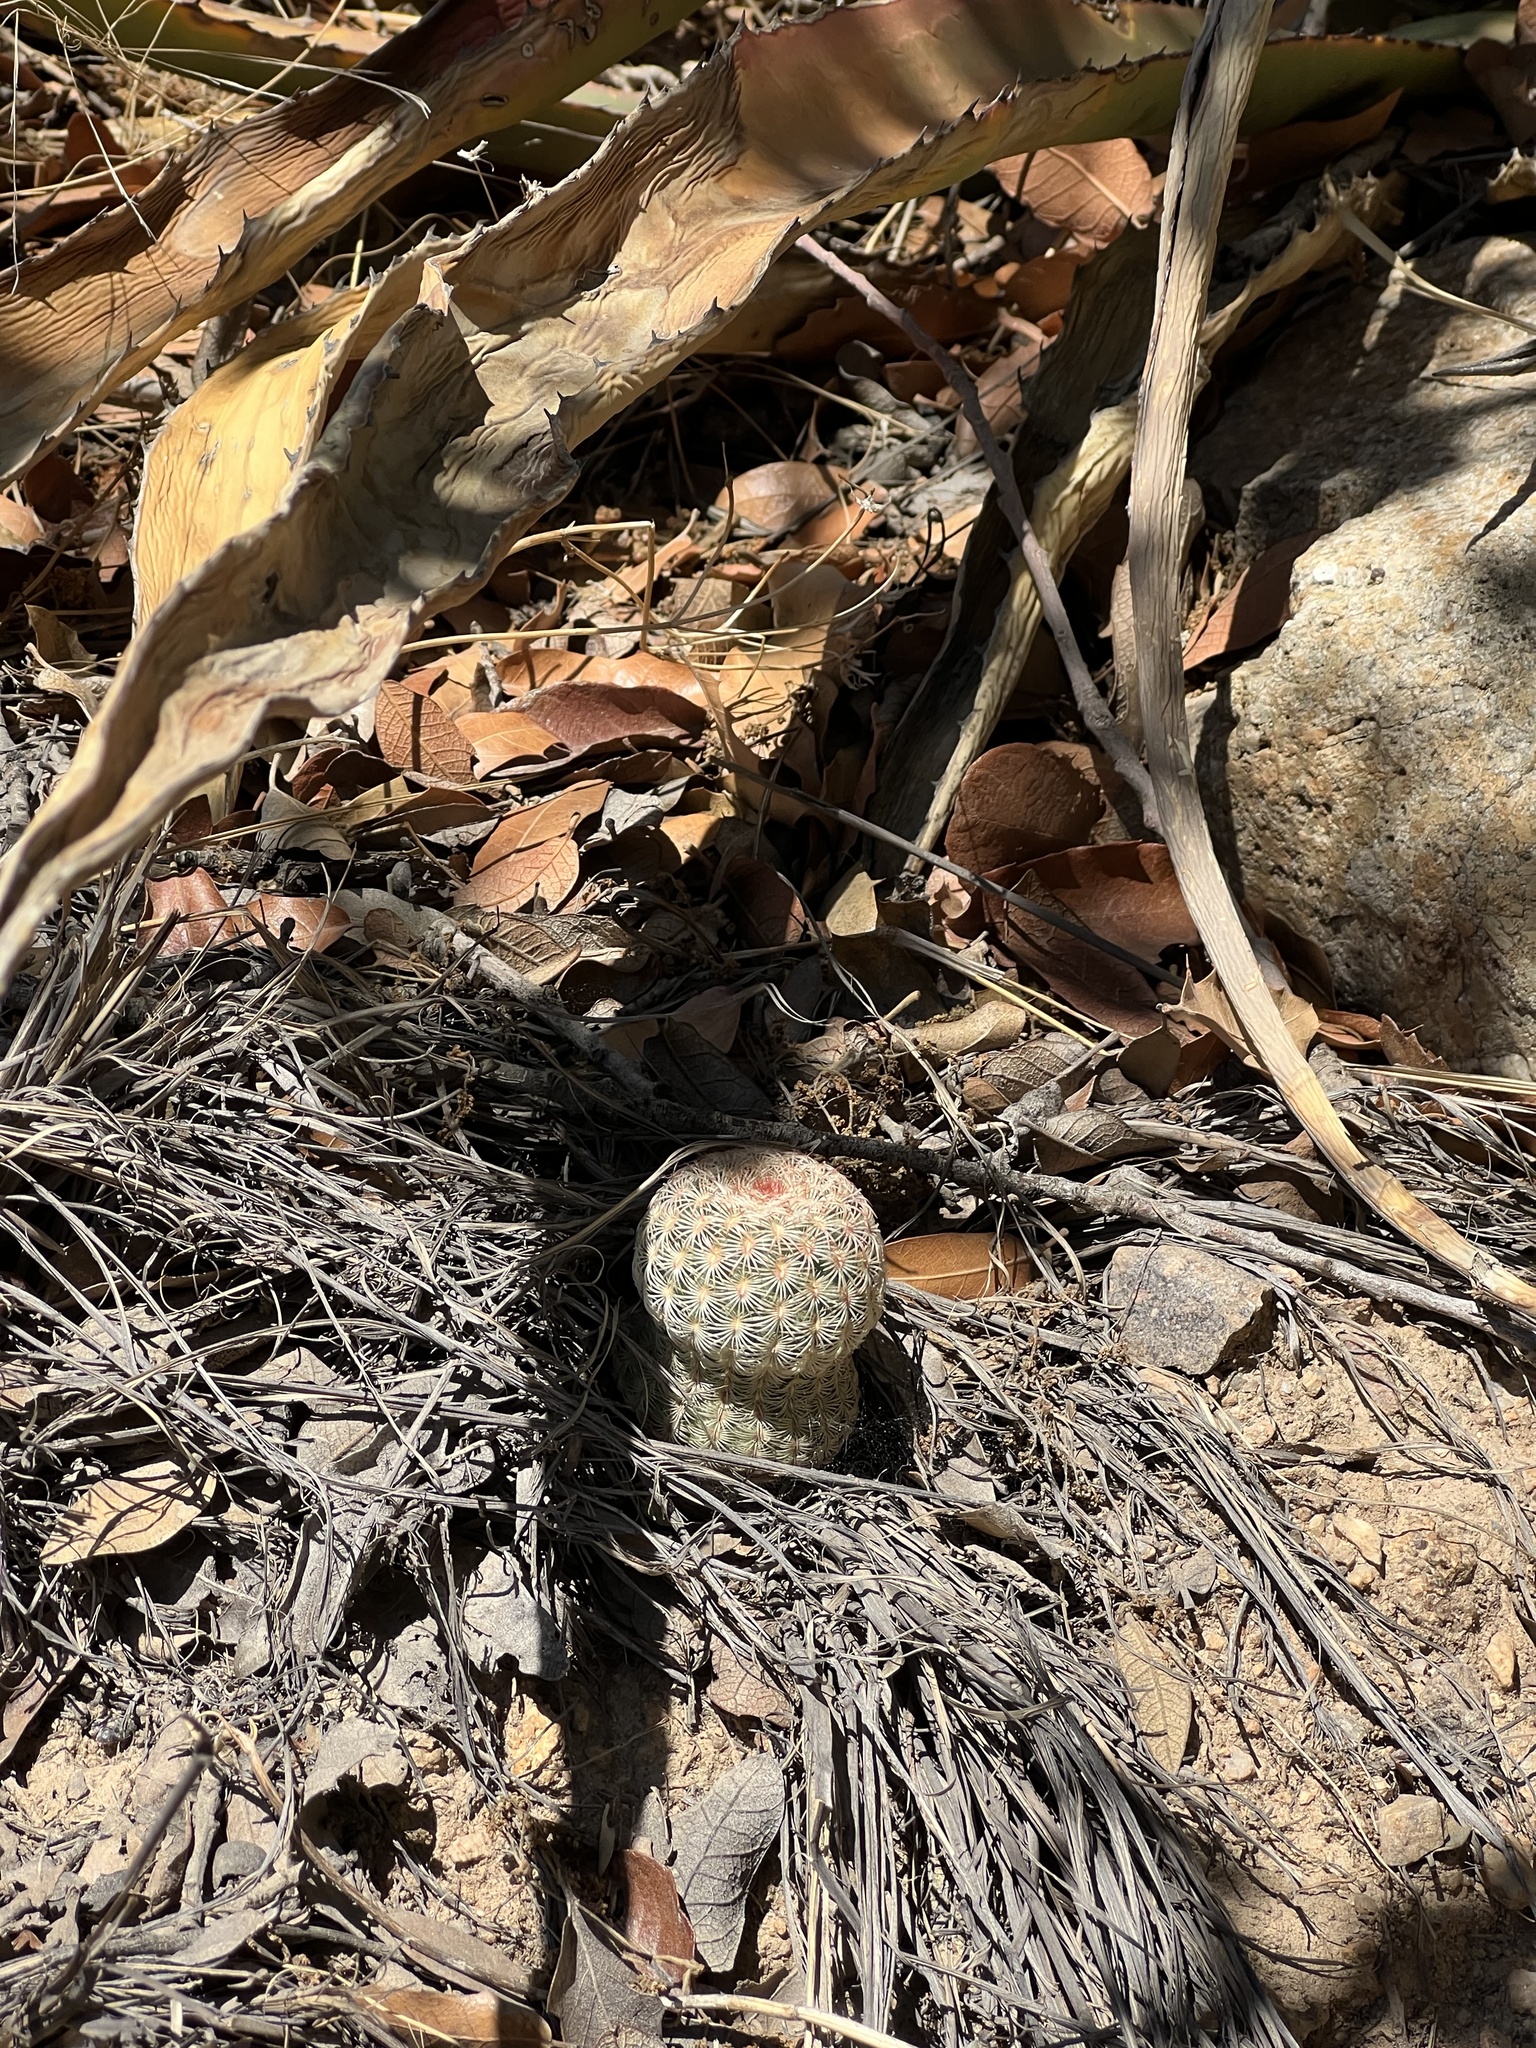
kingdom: Plantae
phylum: Tracheophyta
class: Magnoliopsida
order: Caryophyllales
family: Cactaceae
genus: Echinocereus
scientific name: Echinocereus rigidissimus
